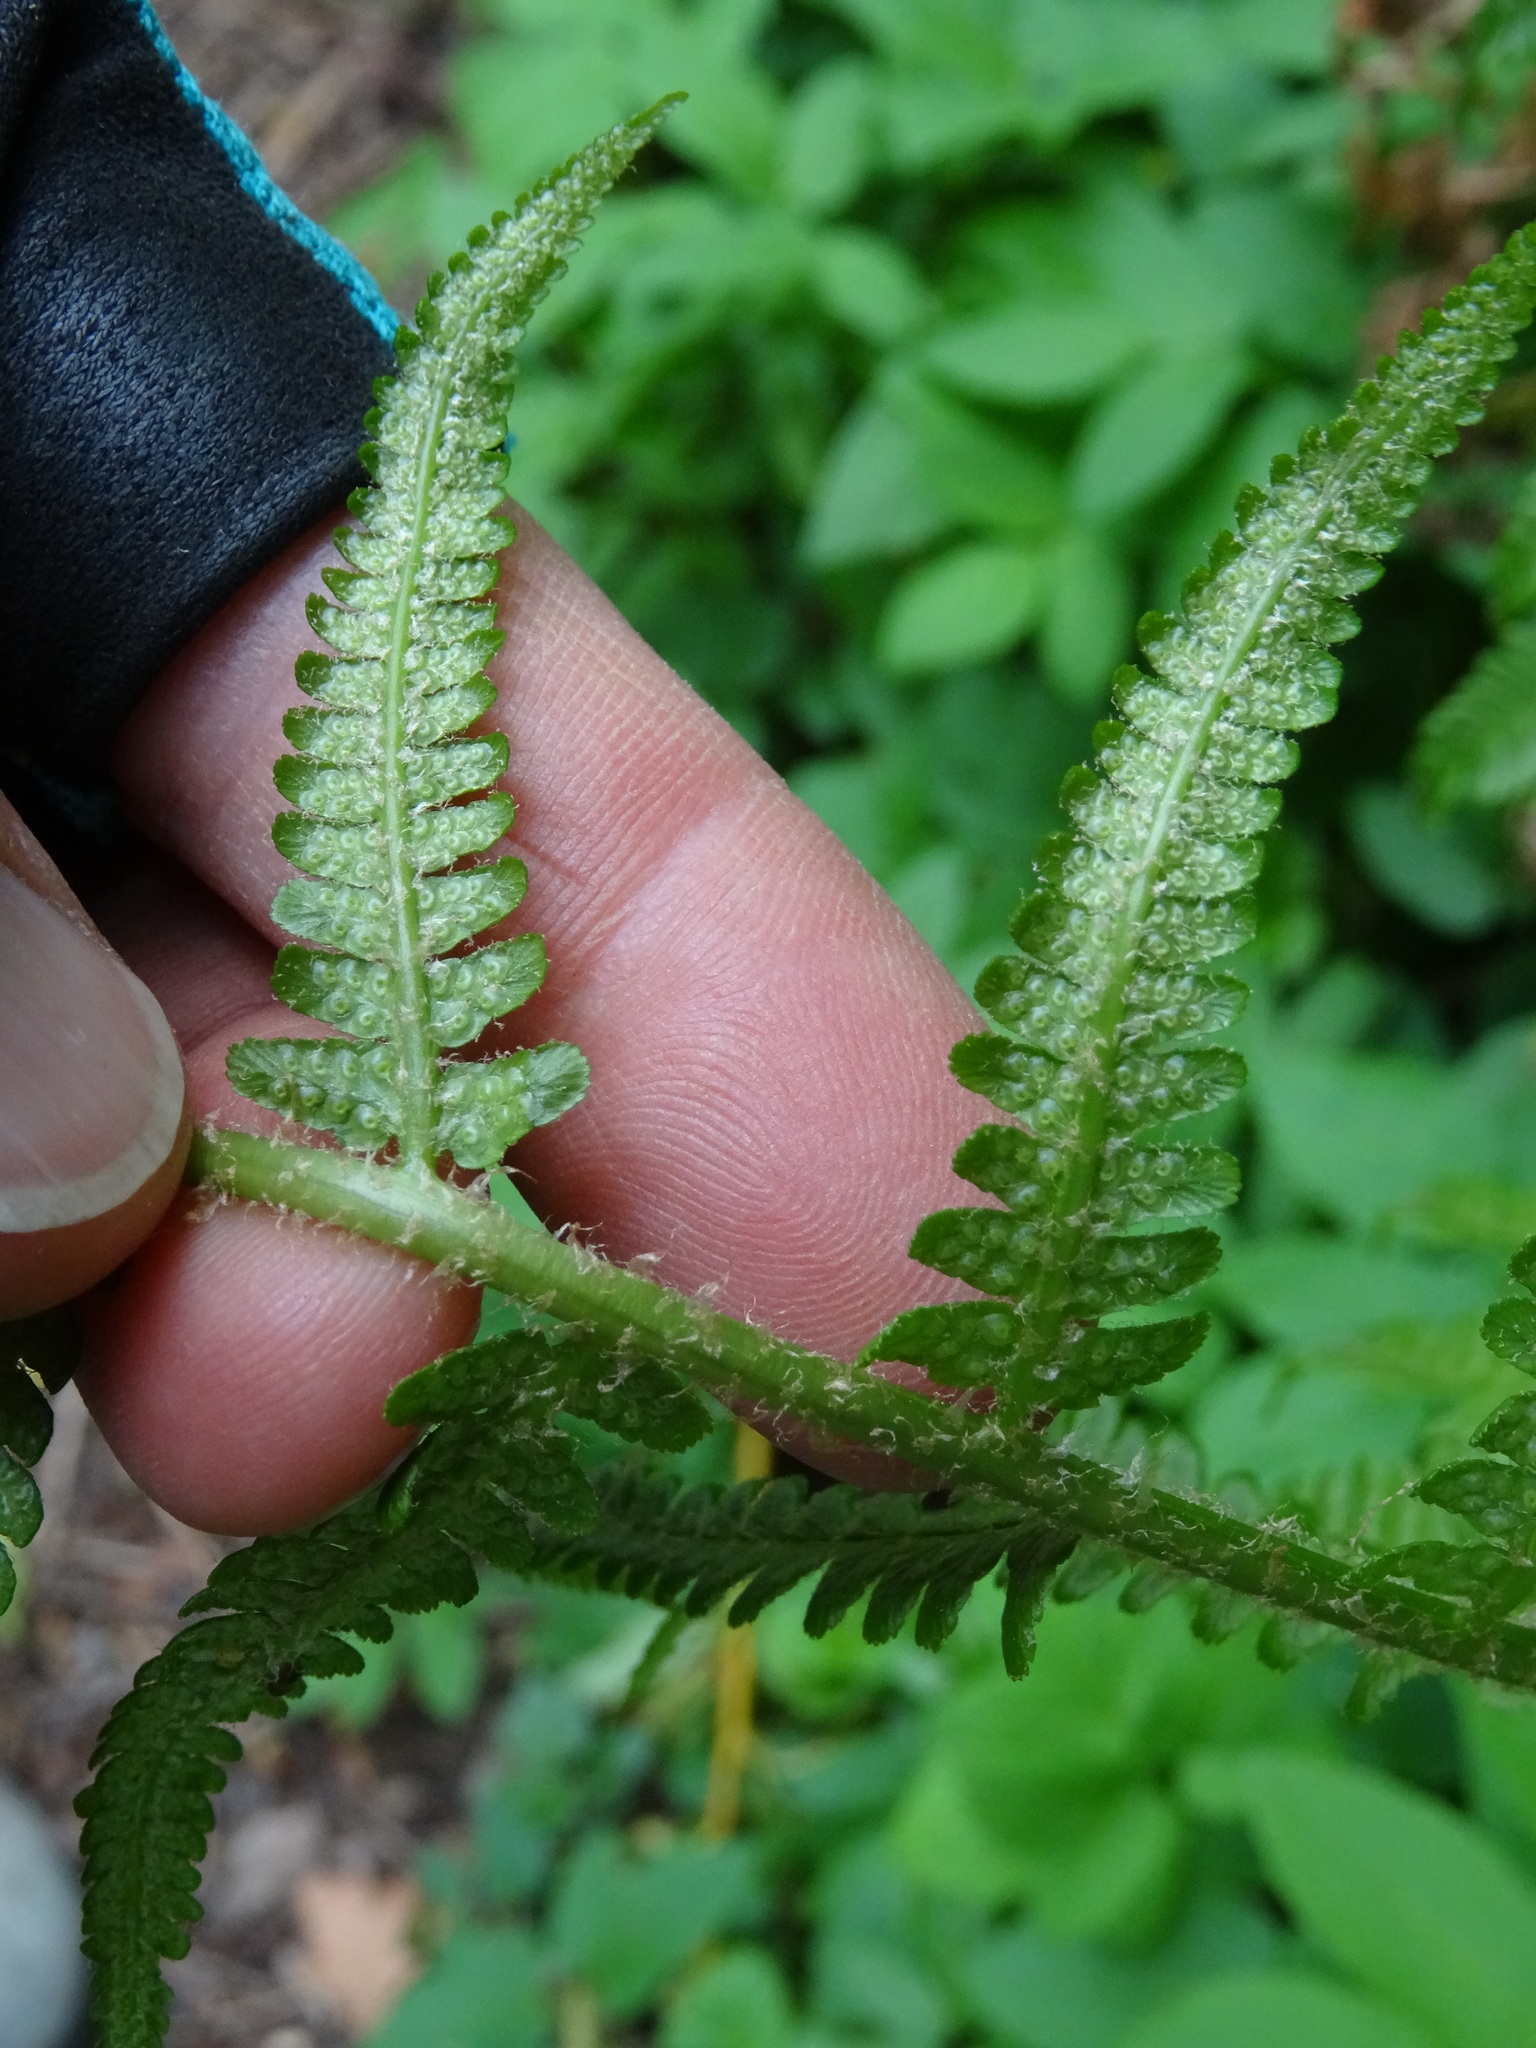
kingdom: Plantae
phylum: Tracheophyta
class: Polypodiopsida
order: Polypodiales
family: Dryopteridaceae
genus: Dryopteris
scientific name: Dryopteris filix-mas
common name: Male fern
